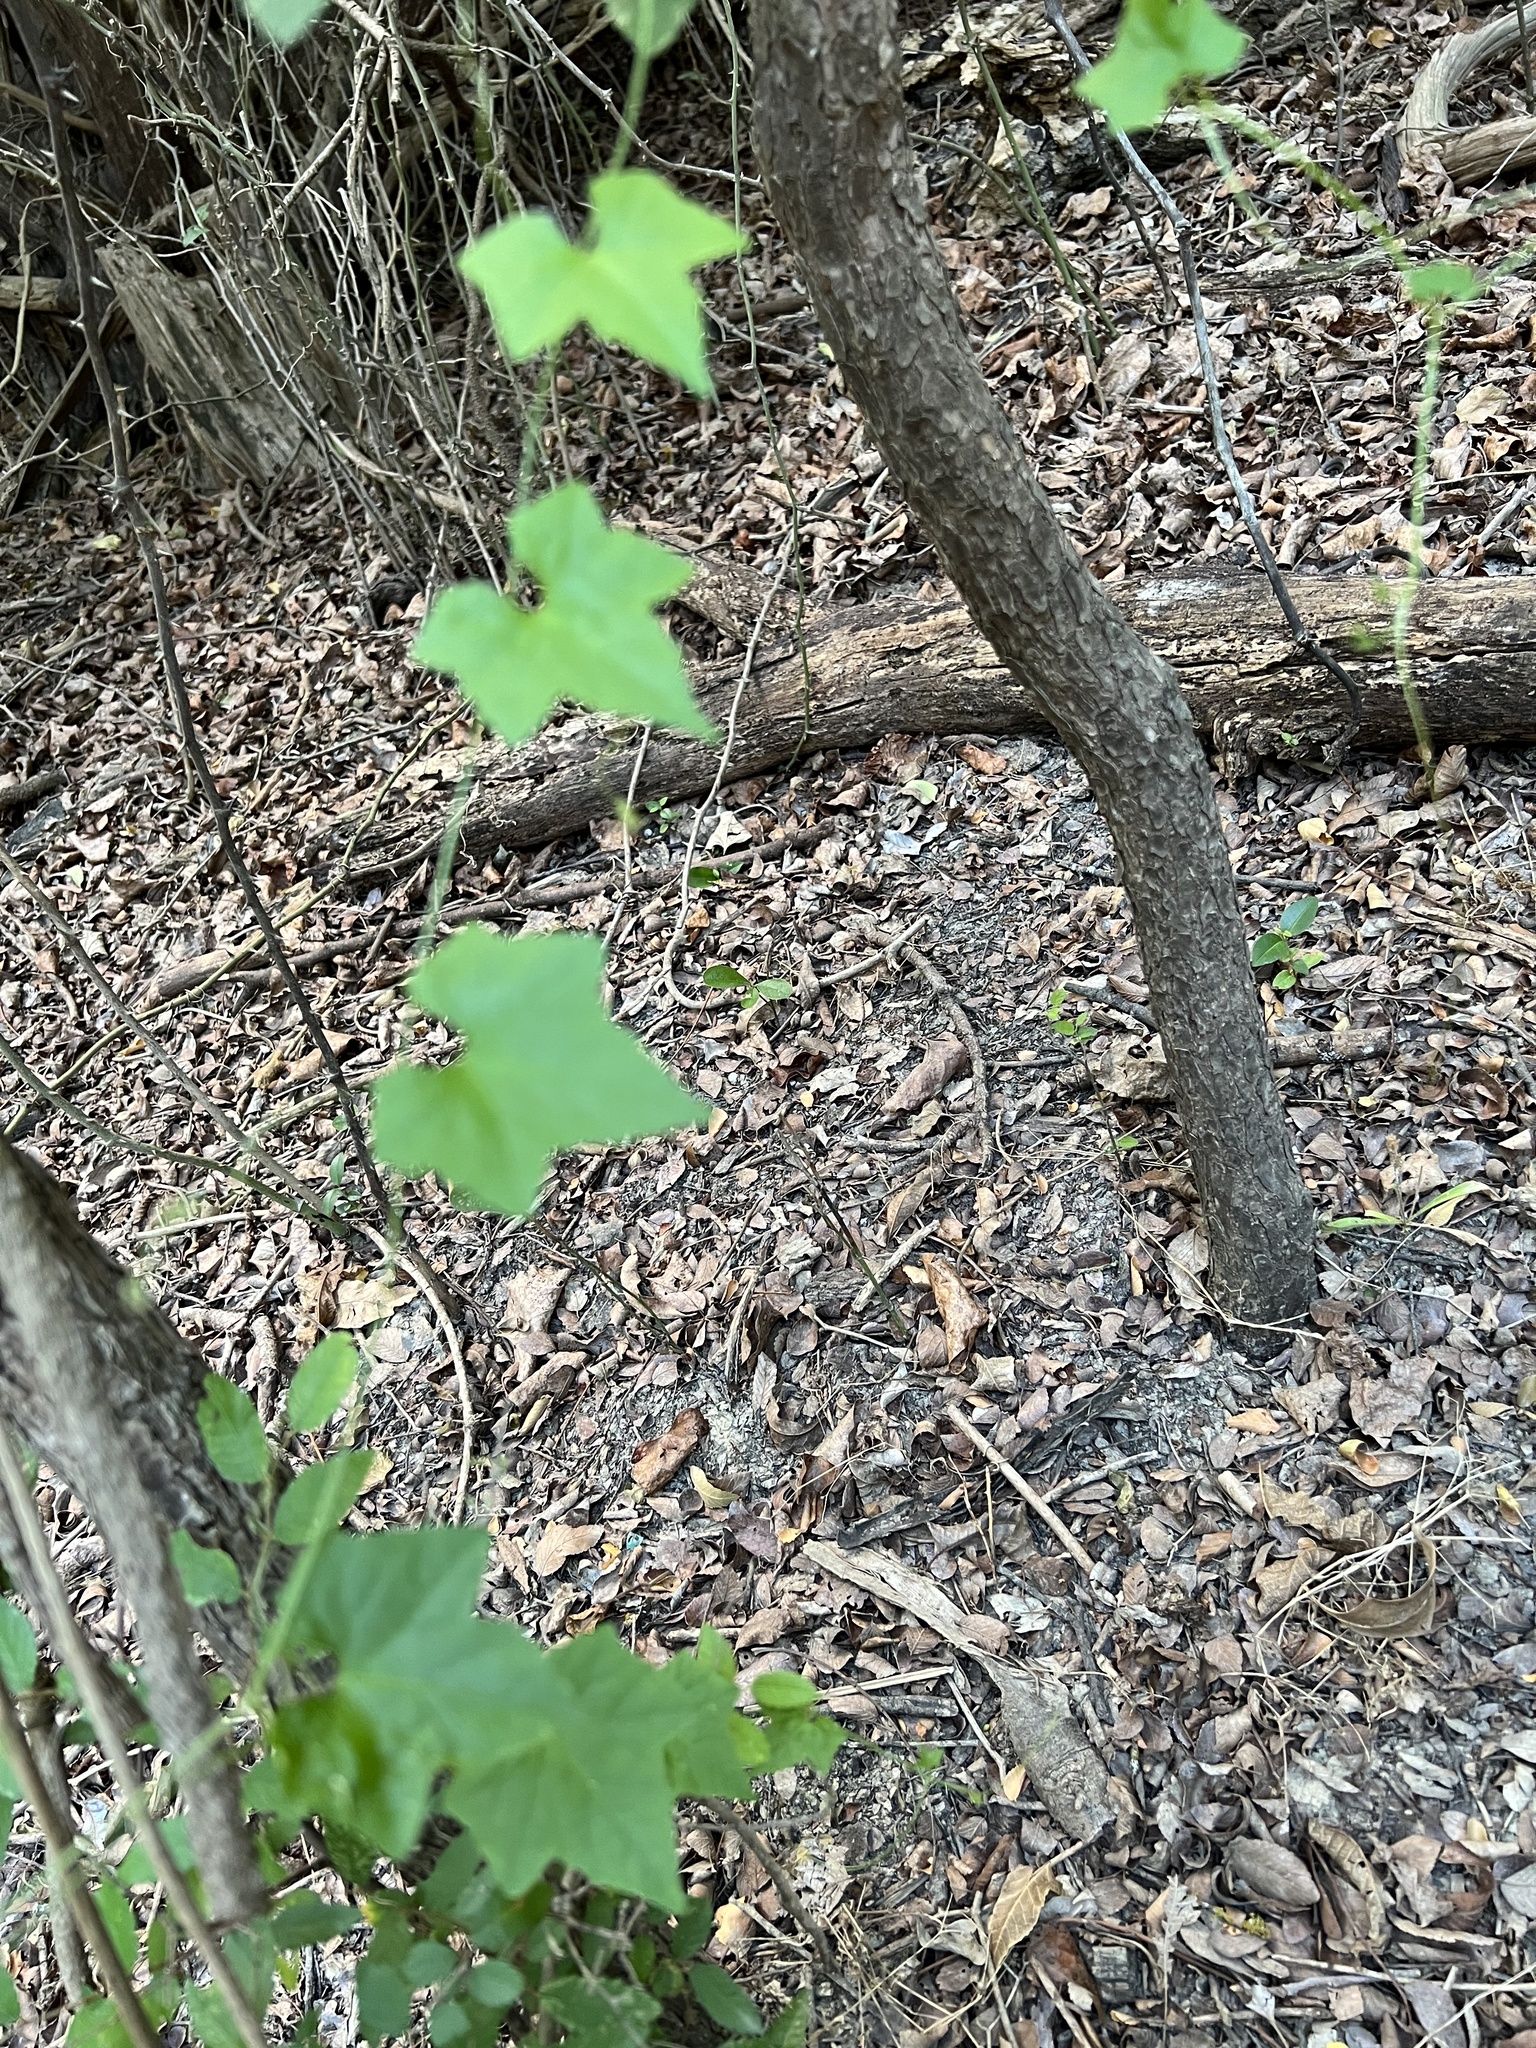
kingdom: Plantae
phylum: Tracheophyta
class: Magnoliopsida
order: Cucurbitales
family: Cucurbitaceae
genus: Melothria
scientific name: Melothria pendula
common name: Creeping-cucumber
